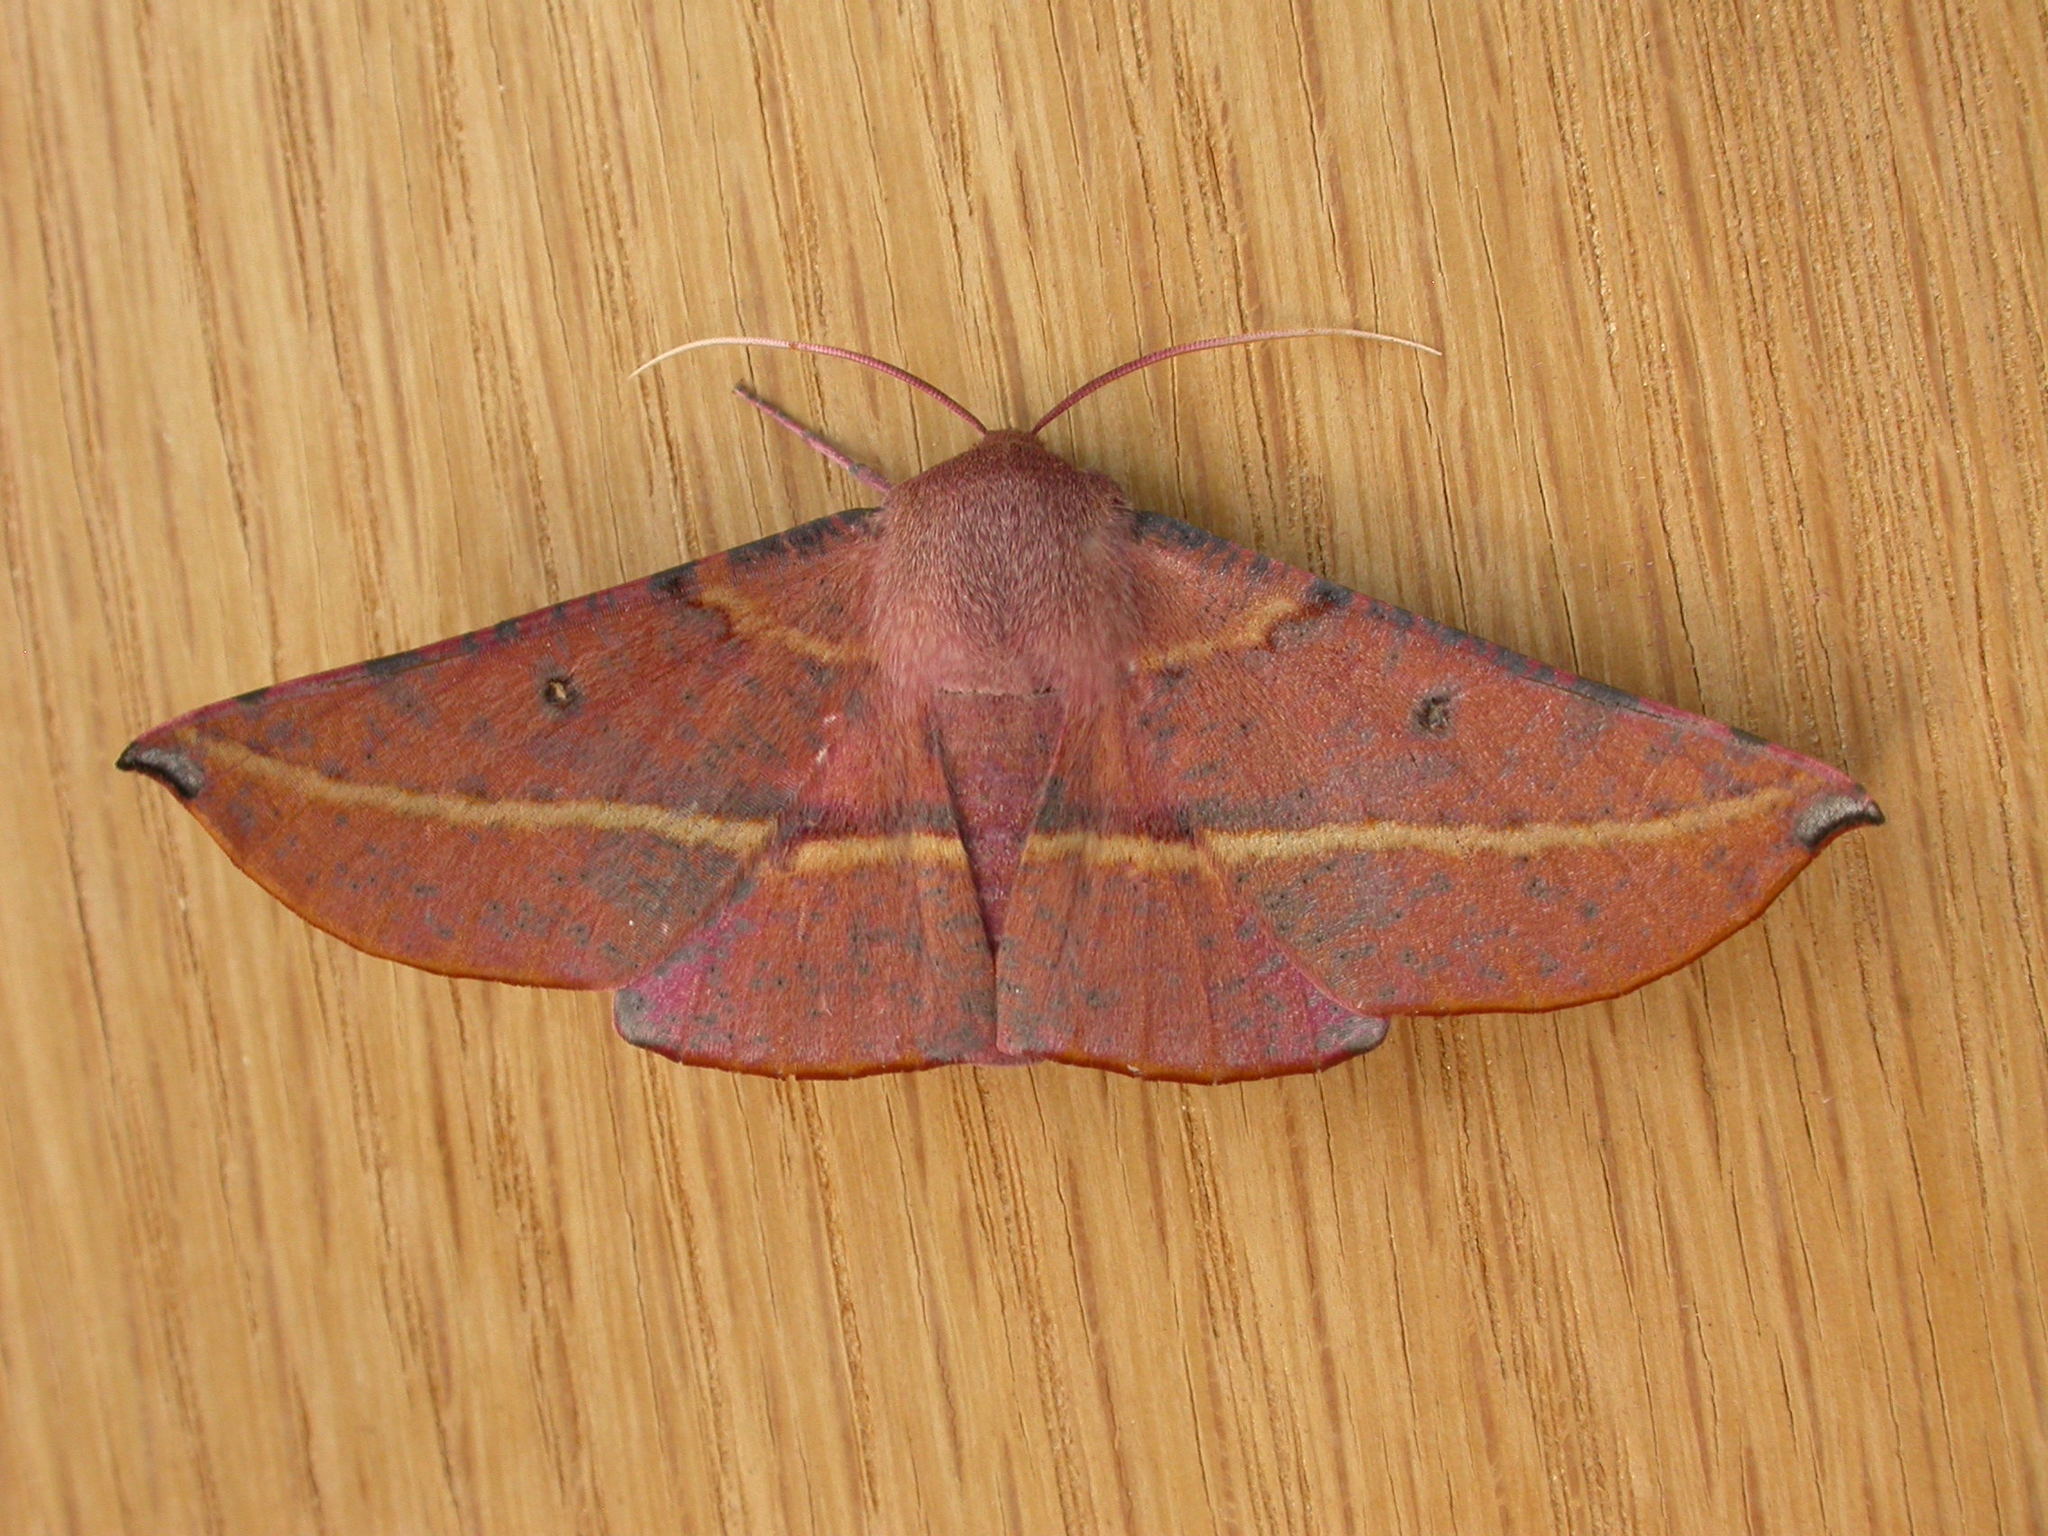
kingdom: Animalia
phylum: Arthropoda
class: Insecta
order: Lepidoptera
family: Geometridae
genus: Oenochroma
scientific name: Oenochroma vinaria
